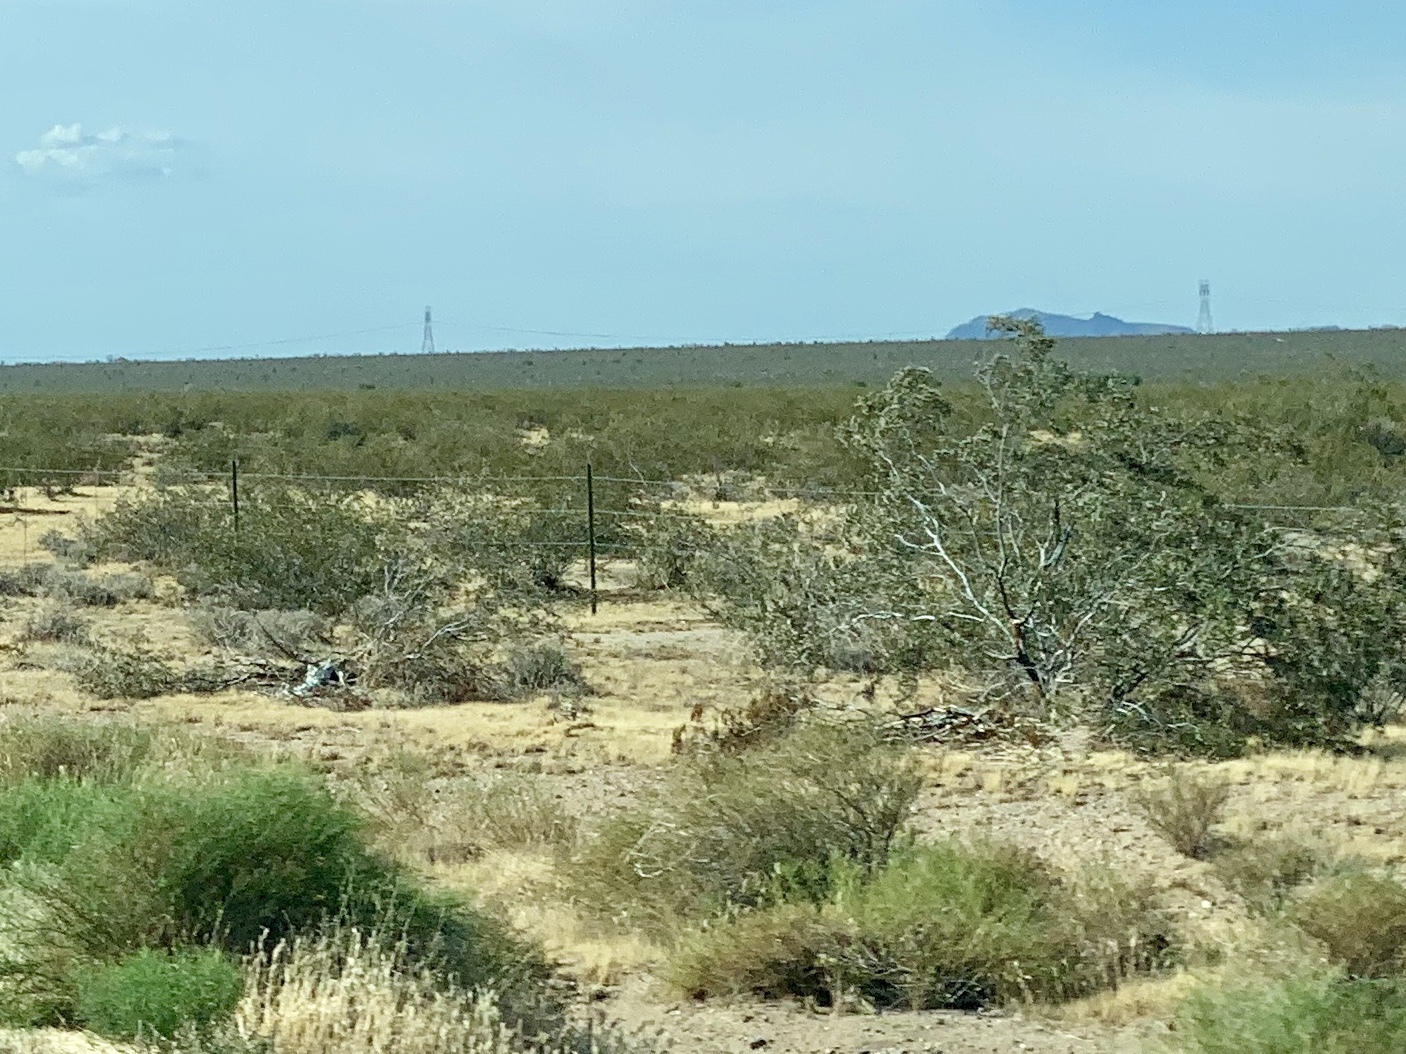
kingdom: Plantae
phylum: Tracheophyta
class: Magnoliopsida
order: Zygophyllales
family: Zygophyllaceae
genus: Larrea
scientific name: Larrea tridentata
